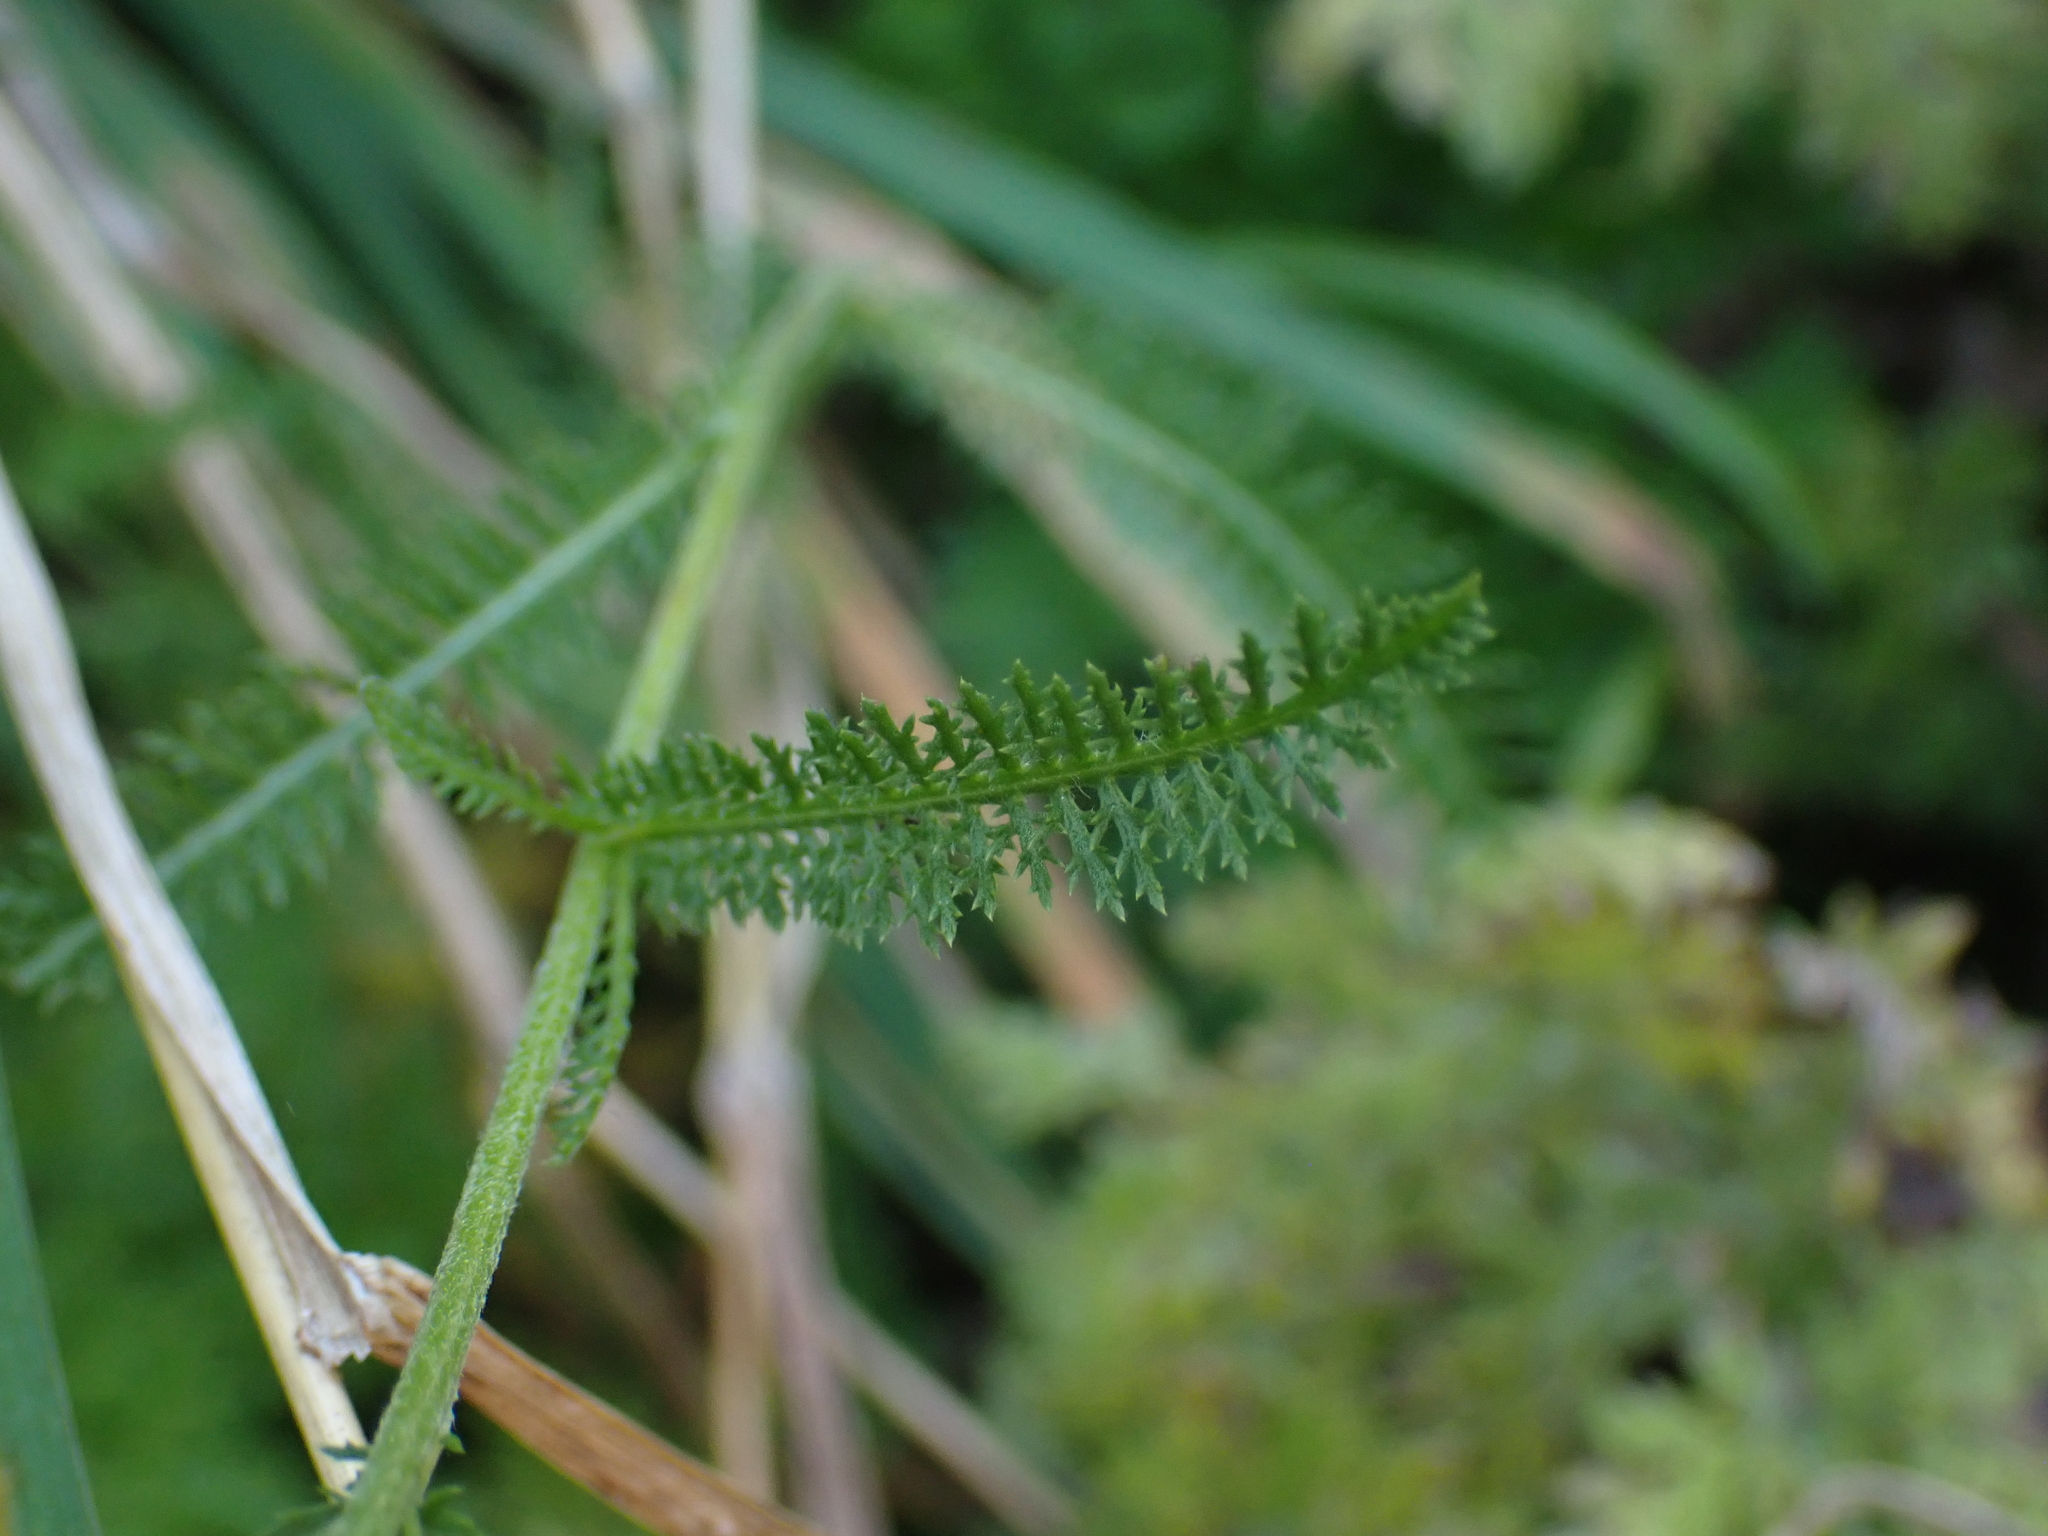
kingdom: Plantae
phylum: Tracheophyta
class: Magnoliopsida
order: Asterales
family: Asteraceae
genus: Achillea
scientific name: Achillea millefolium
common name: Yarrow
